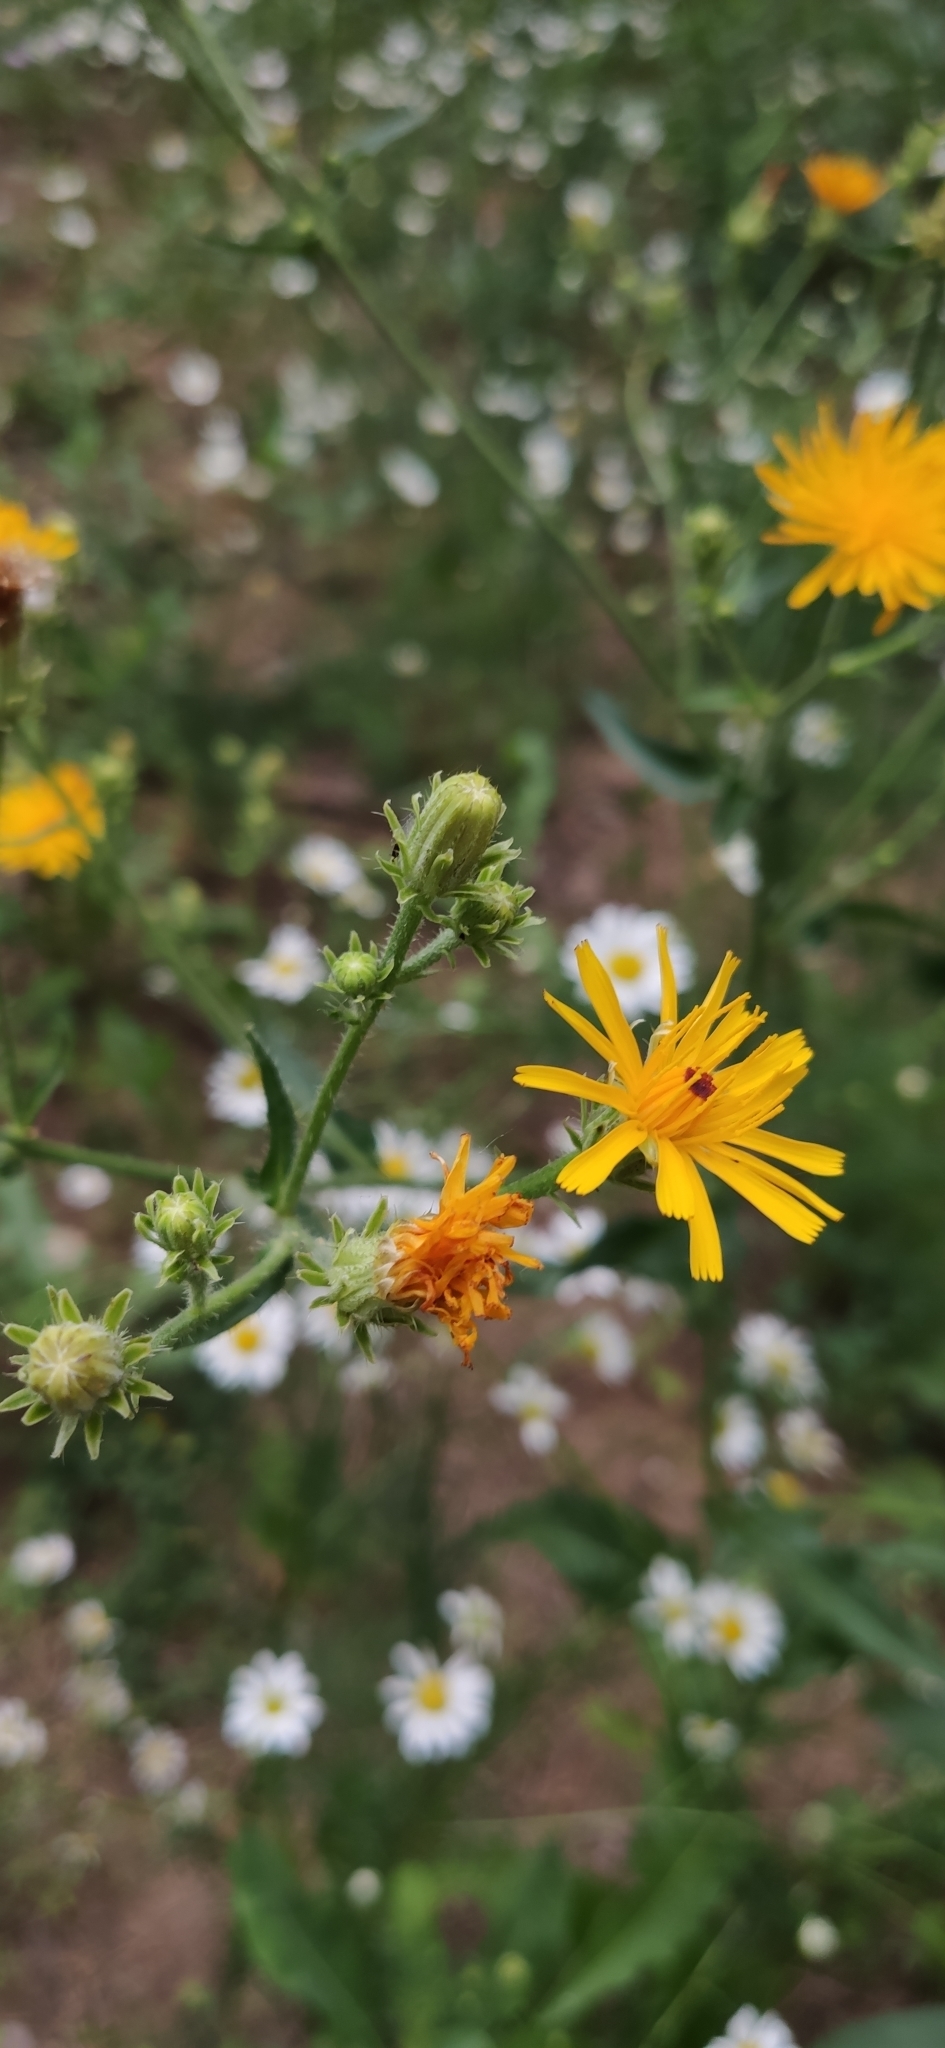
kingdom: Plantae
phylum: Tracheophyta
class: Magnoliopsida
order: Asterales
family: Asteraceae
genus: Picris
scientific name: Picris hieracioides
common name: Hawkweed oxtongue
